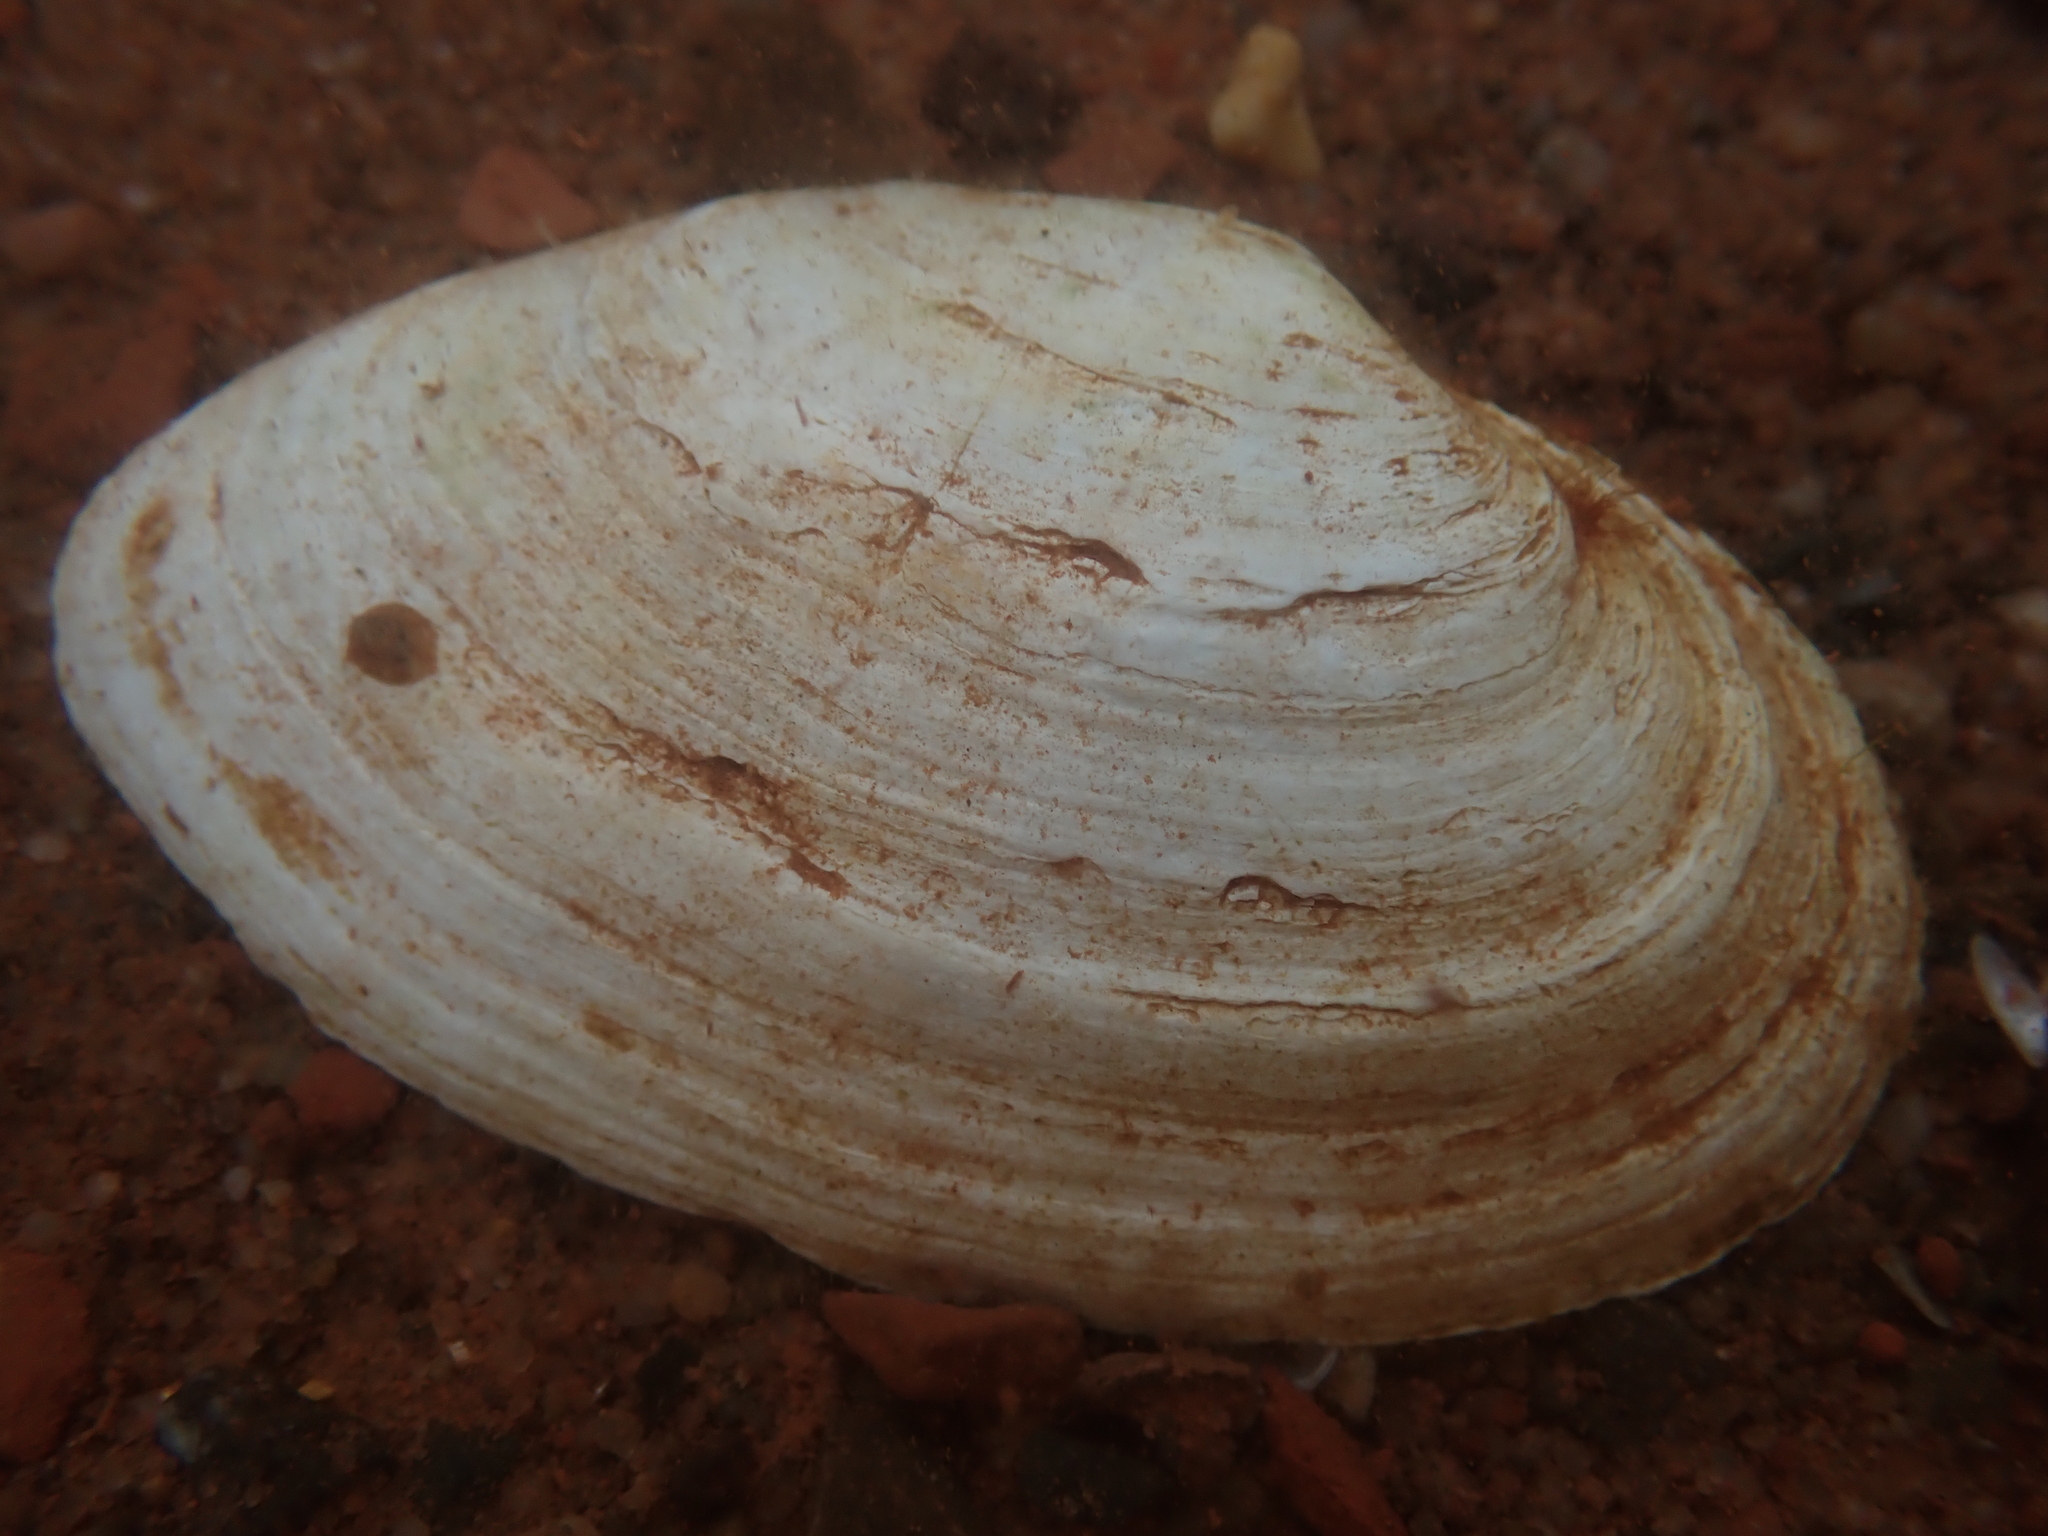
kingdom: Animalia
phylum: Mollusca
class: Bivalvia
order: Myida
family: Myidae
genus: Mya
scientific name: Mya arenaria
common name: Soft-shelled clam
